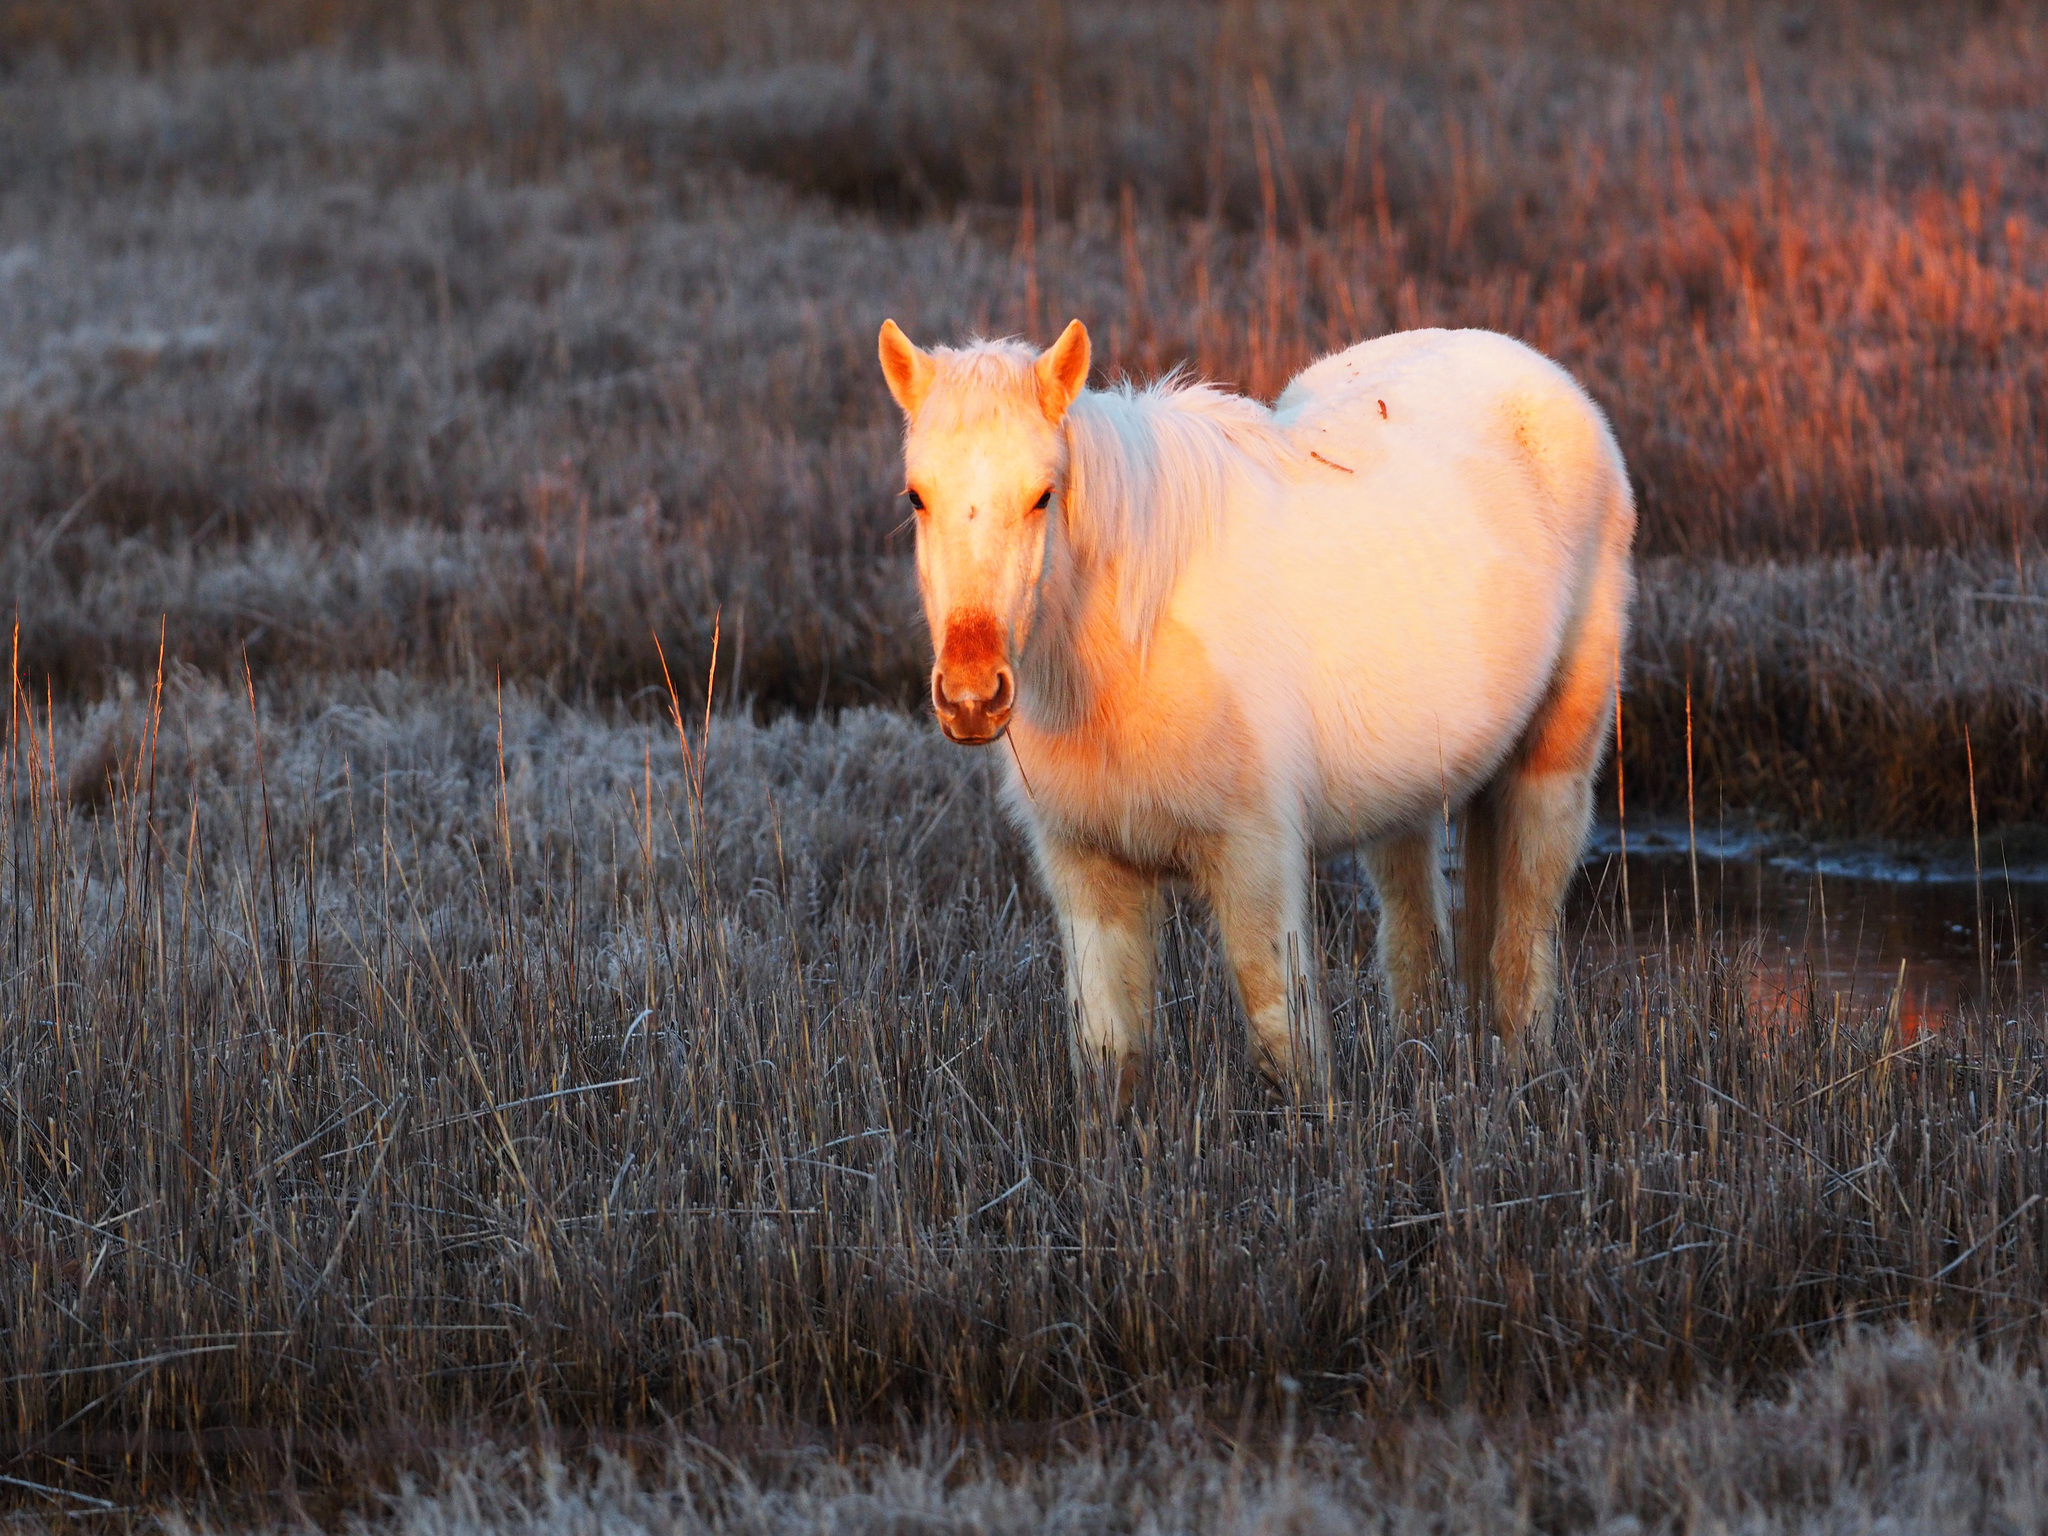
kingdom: Animalia
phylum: Chordata
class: Mammalia
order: Perissodactyla
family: Equidae
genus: Equus
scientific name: Equus caballus
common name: Horse
